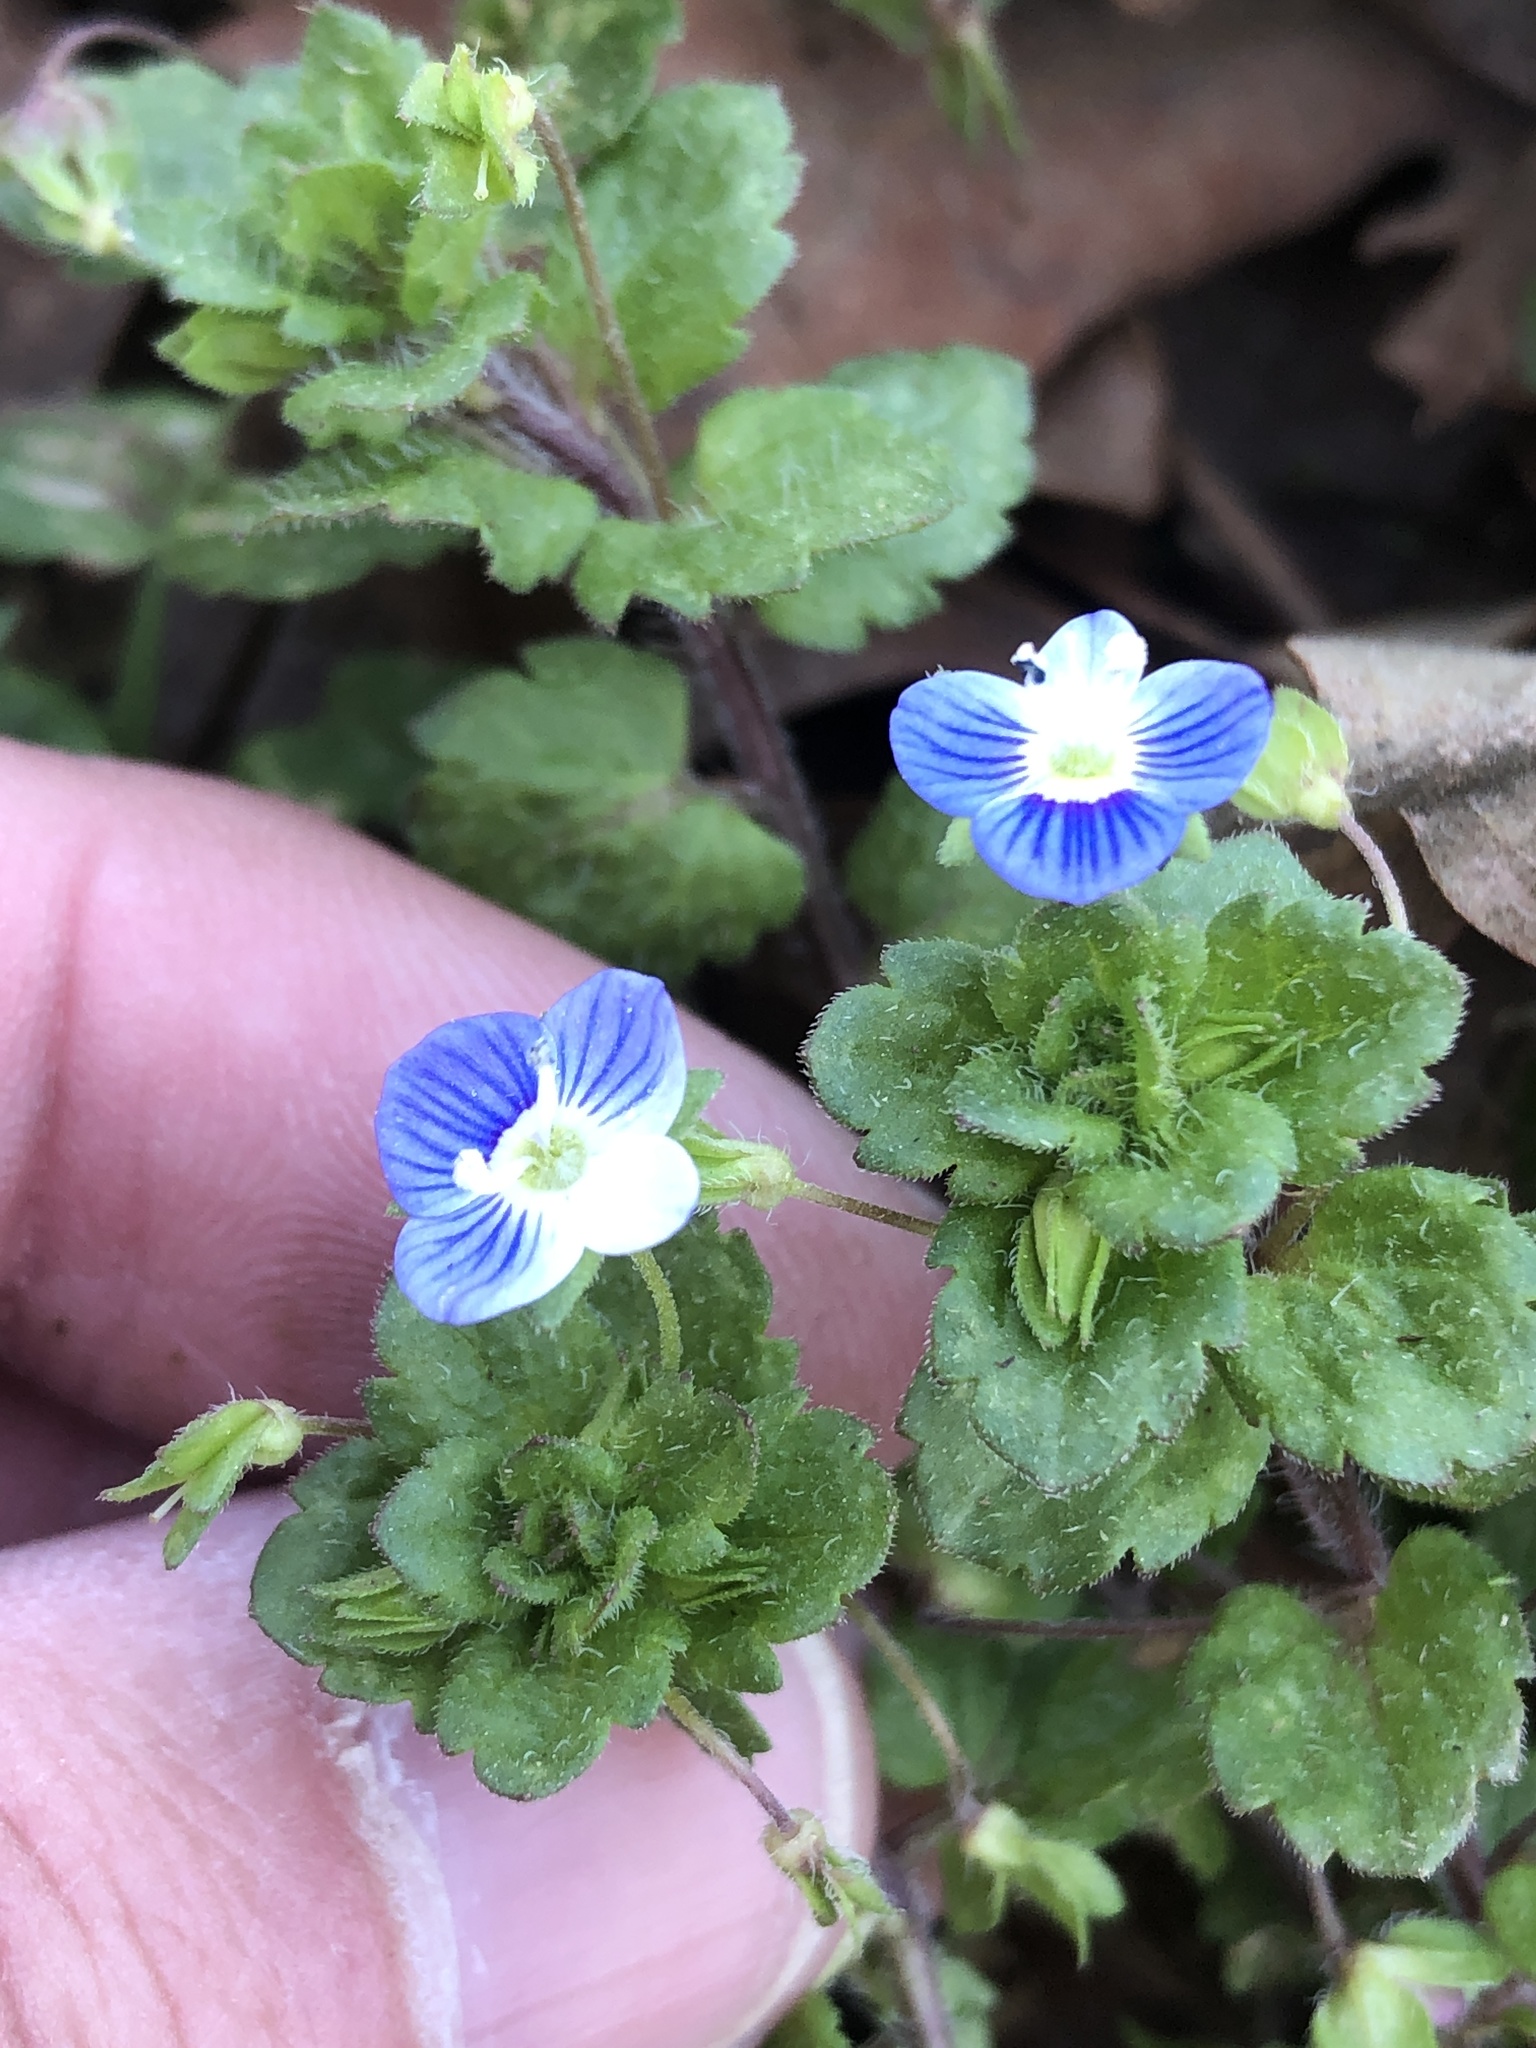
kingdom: Plantae
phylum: Tracheophyta
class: Magnoliopsida
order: Lamiales
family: Plantaginaceae
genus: Veronica
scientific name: Veronica persica
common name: Common field-speedwell
